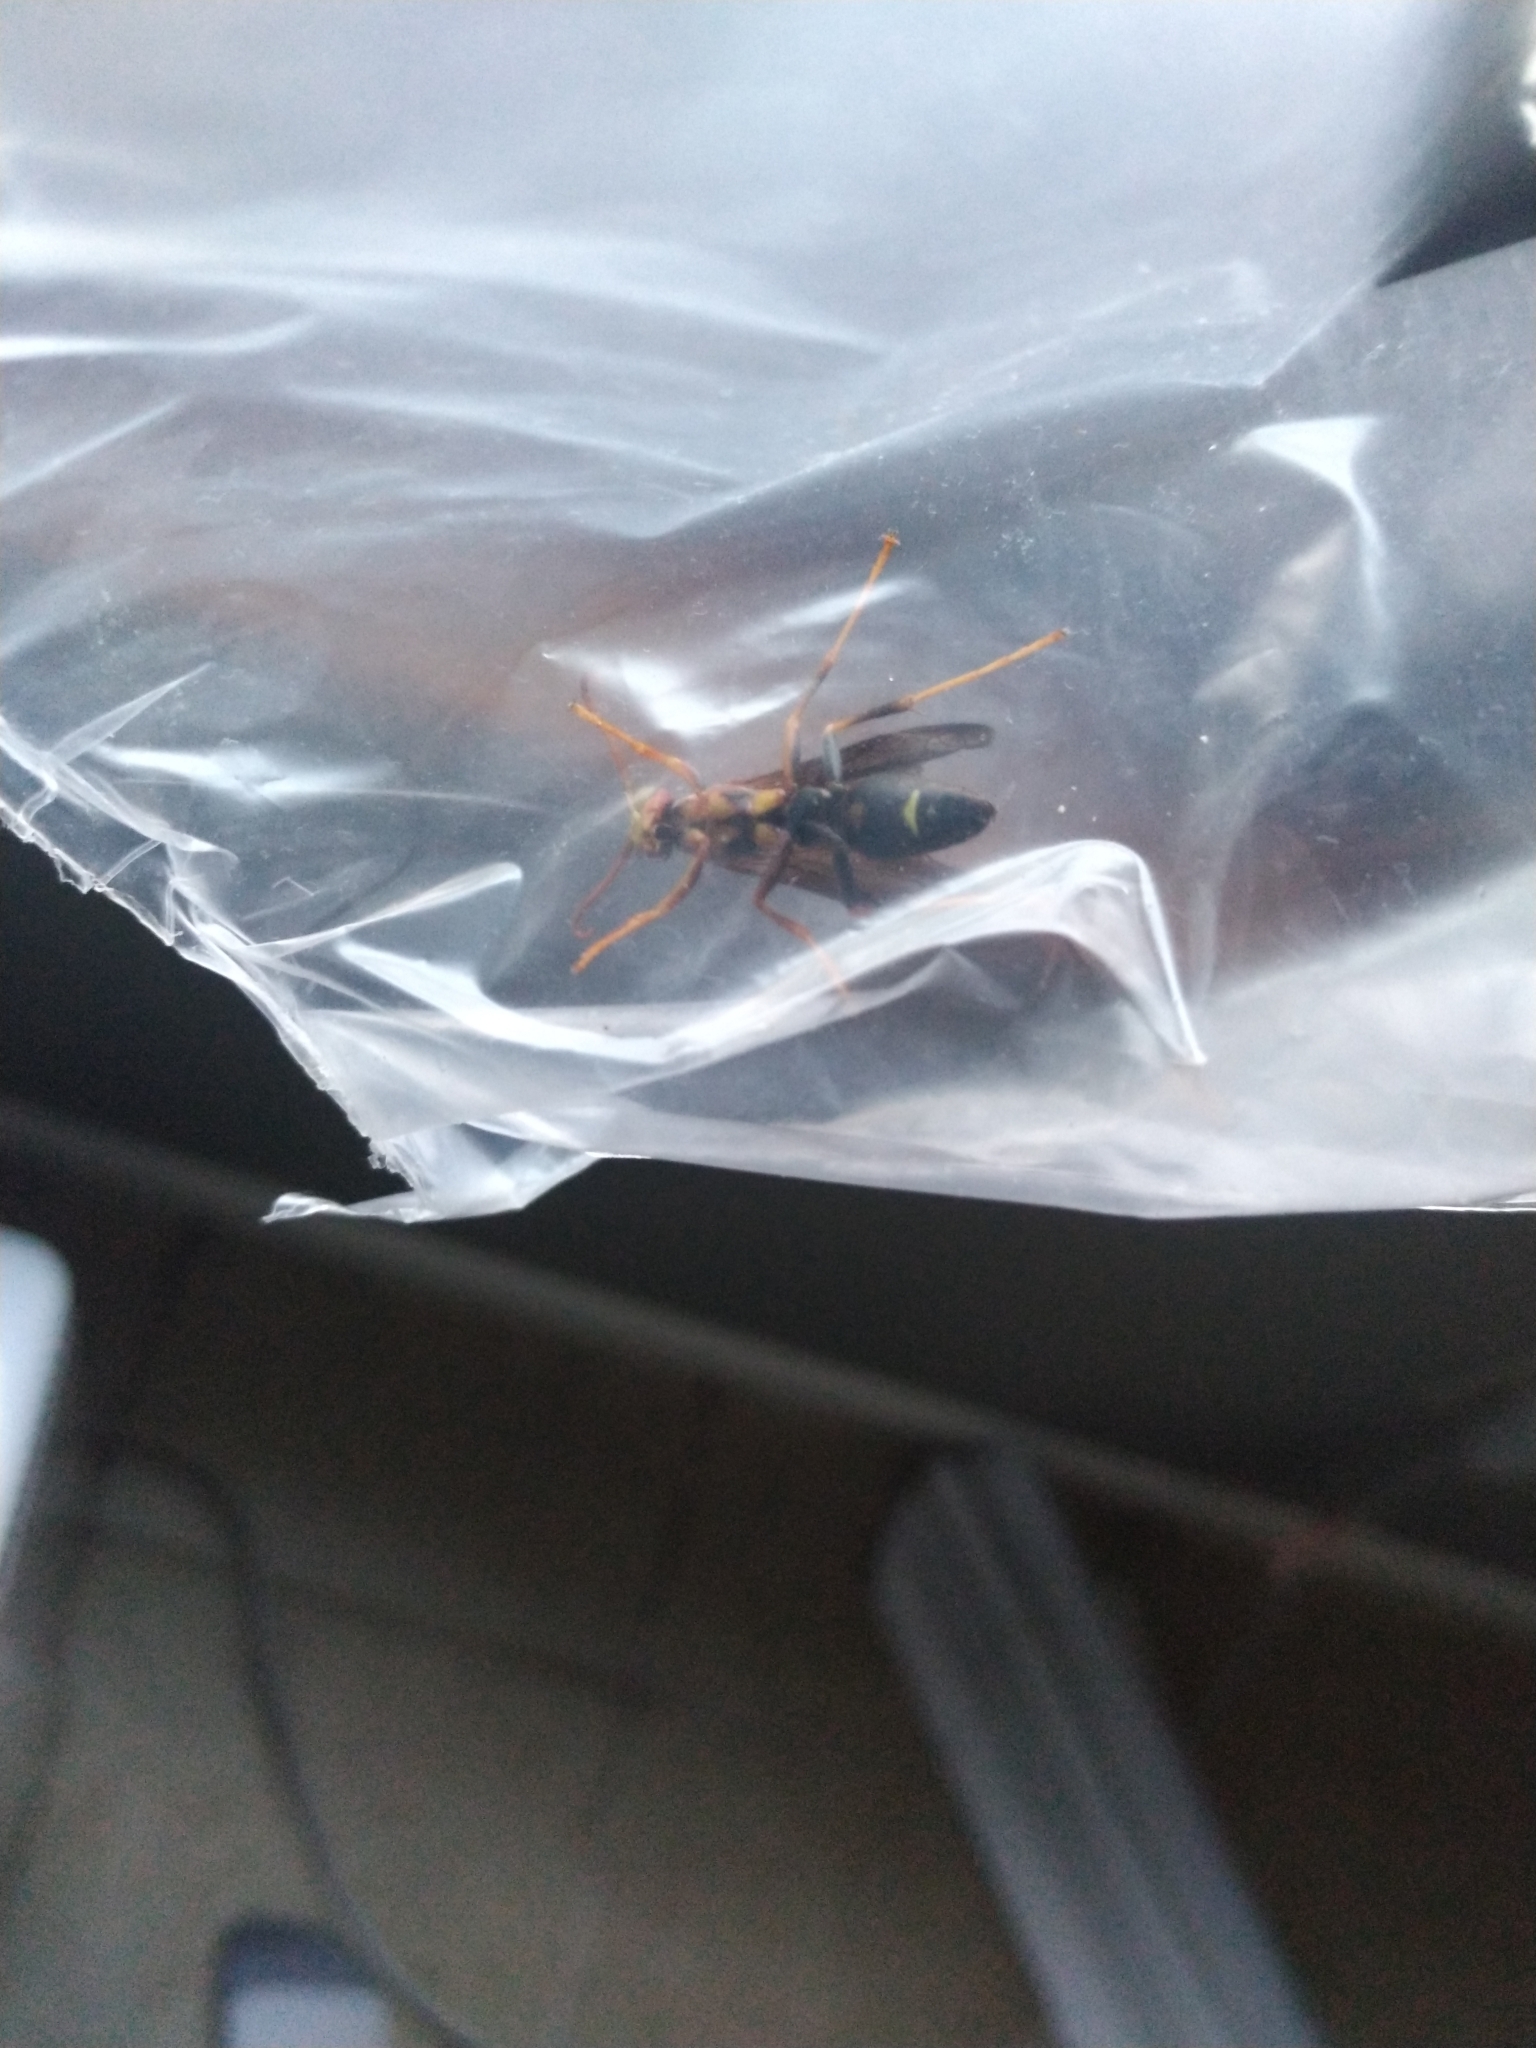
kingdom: Animalia
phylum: Arthropoda
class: Insecta
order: Hymenoptera
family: Eumenidae
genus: Polistes
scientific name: Polistes metricus
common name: Metric paper wasp
